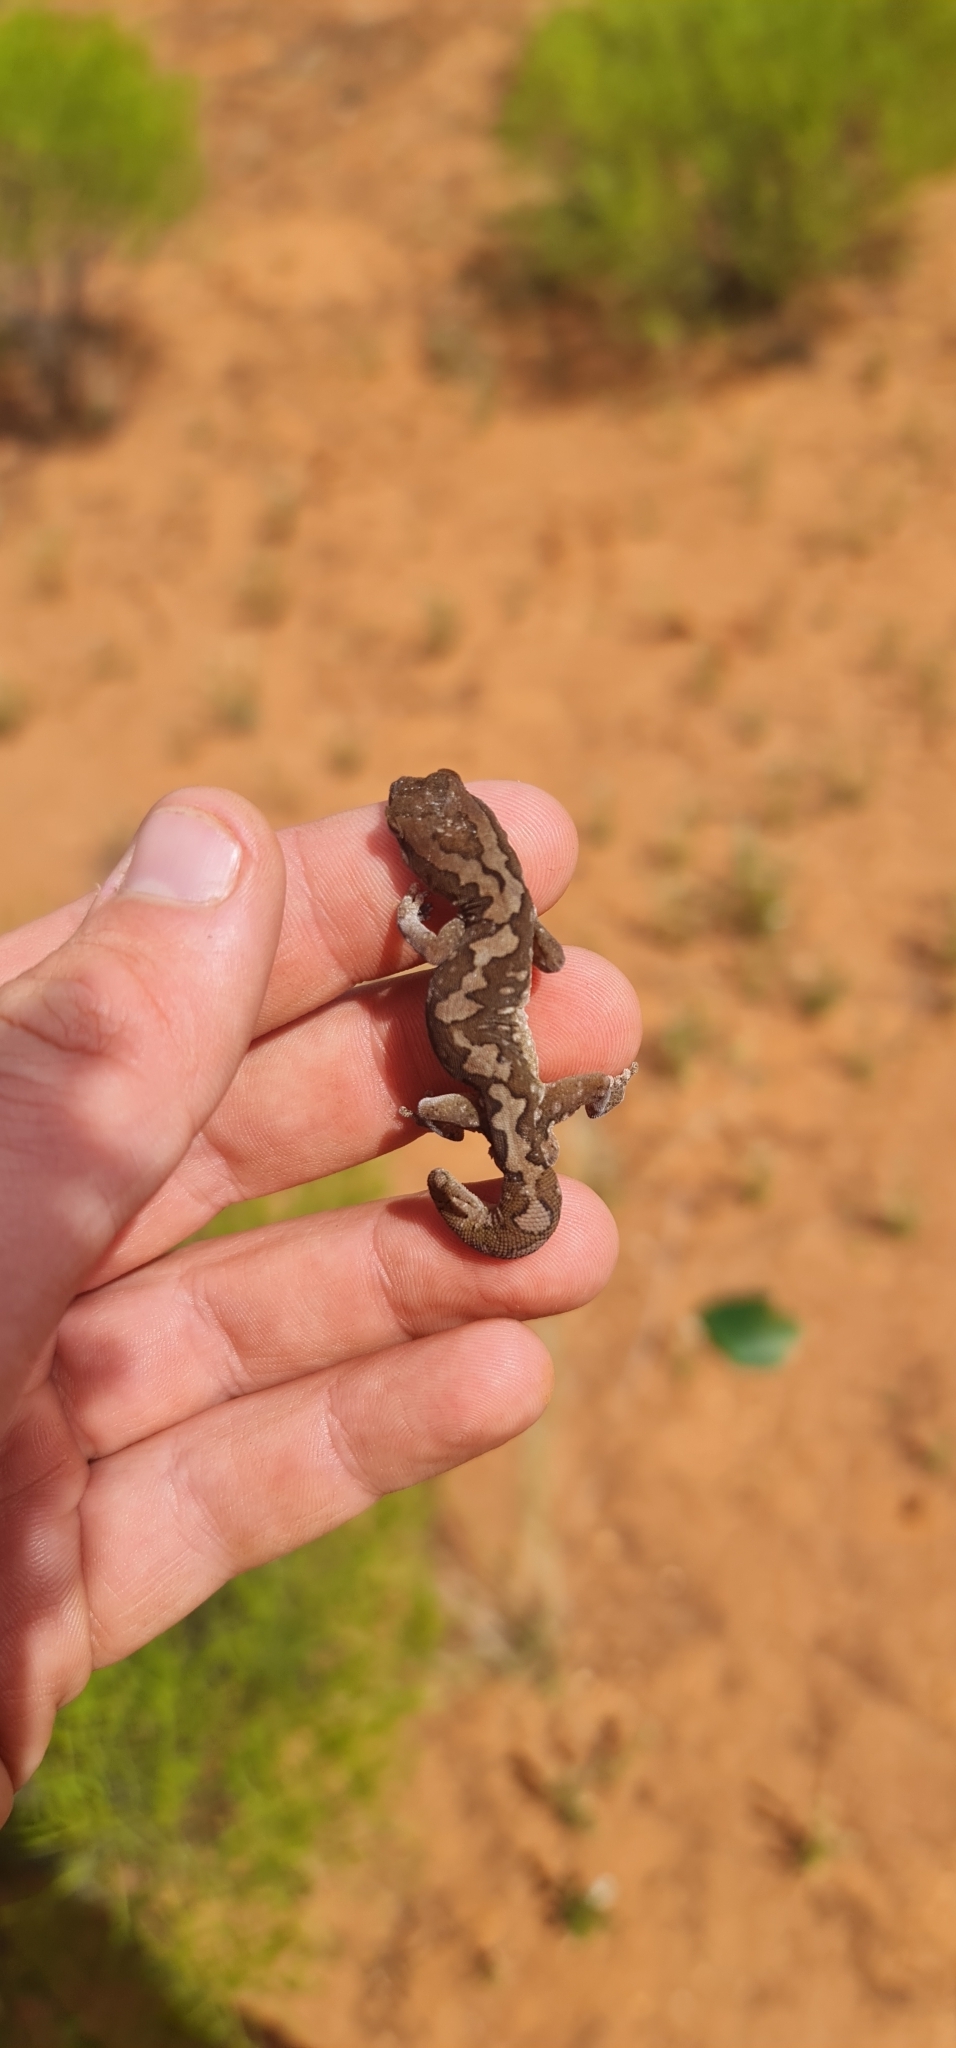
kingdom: Animalia
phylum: Chordata
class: Squamata
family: Diplodactylidae
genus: Diplodactylus
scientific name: Diplodactylus furcosus
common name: Ranges stone gecko
